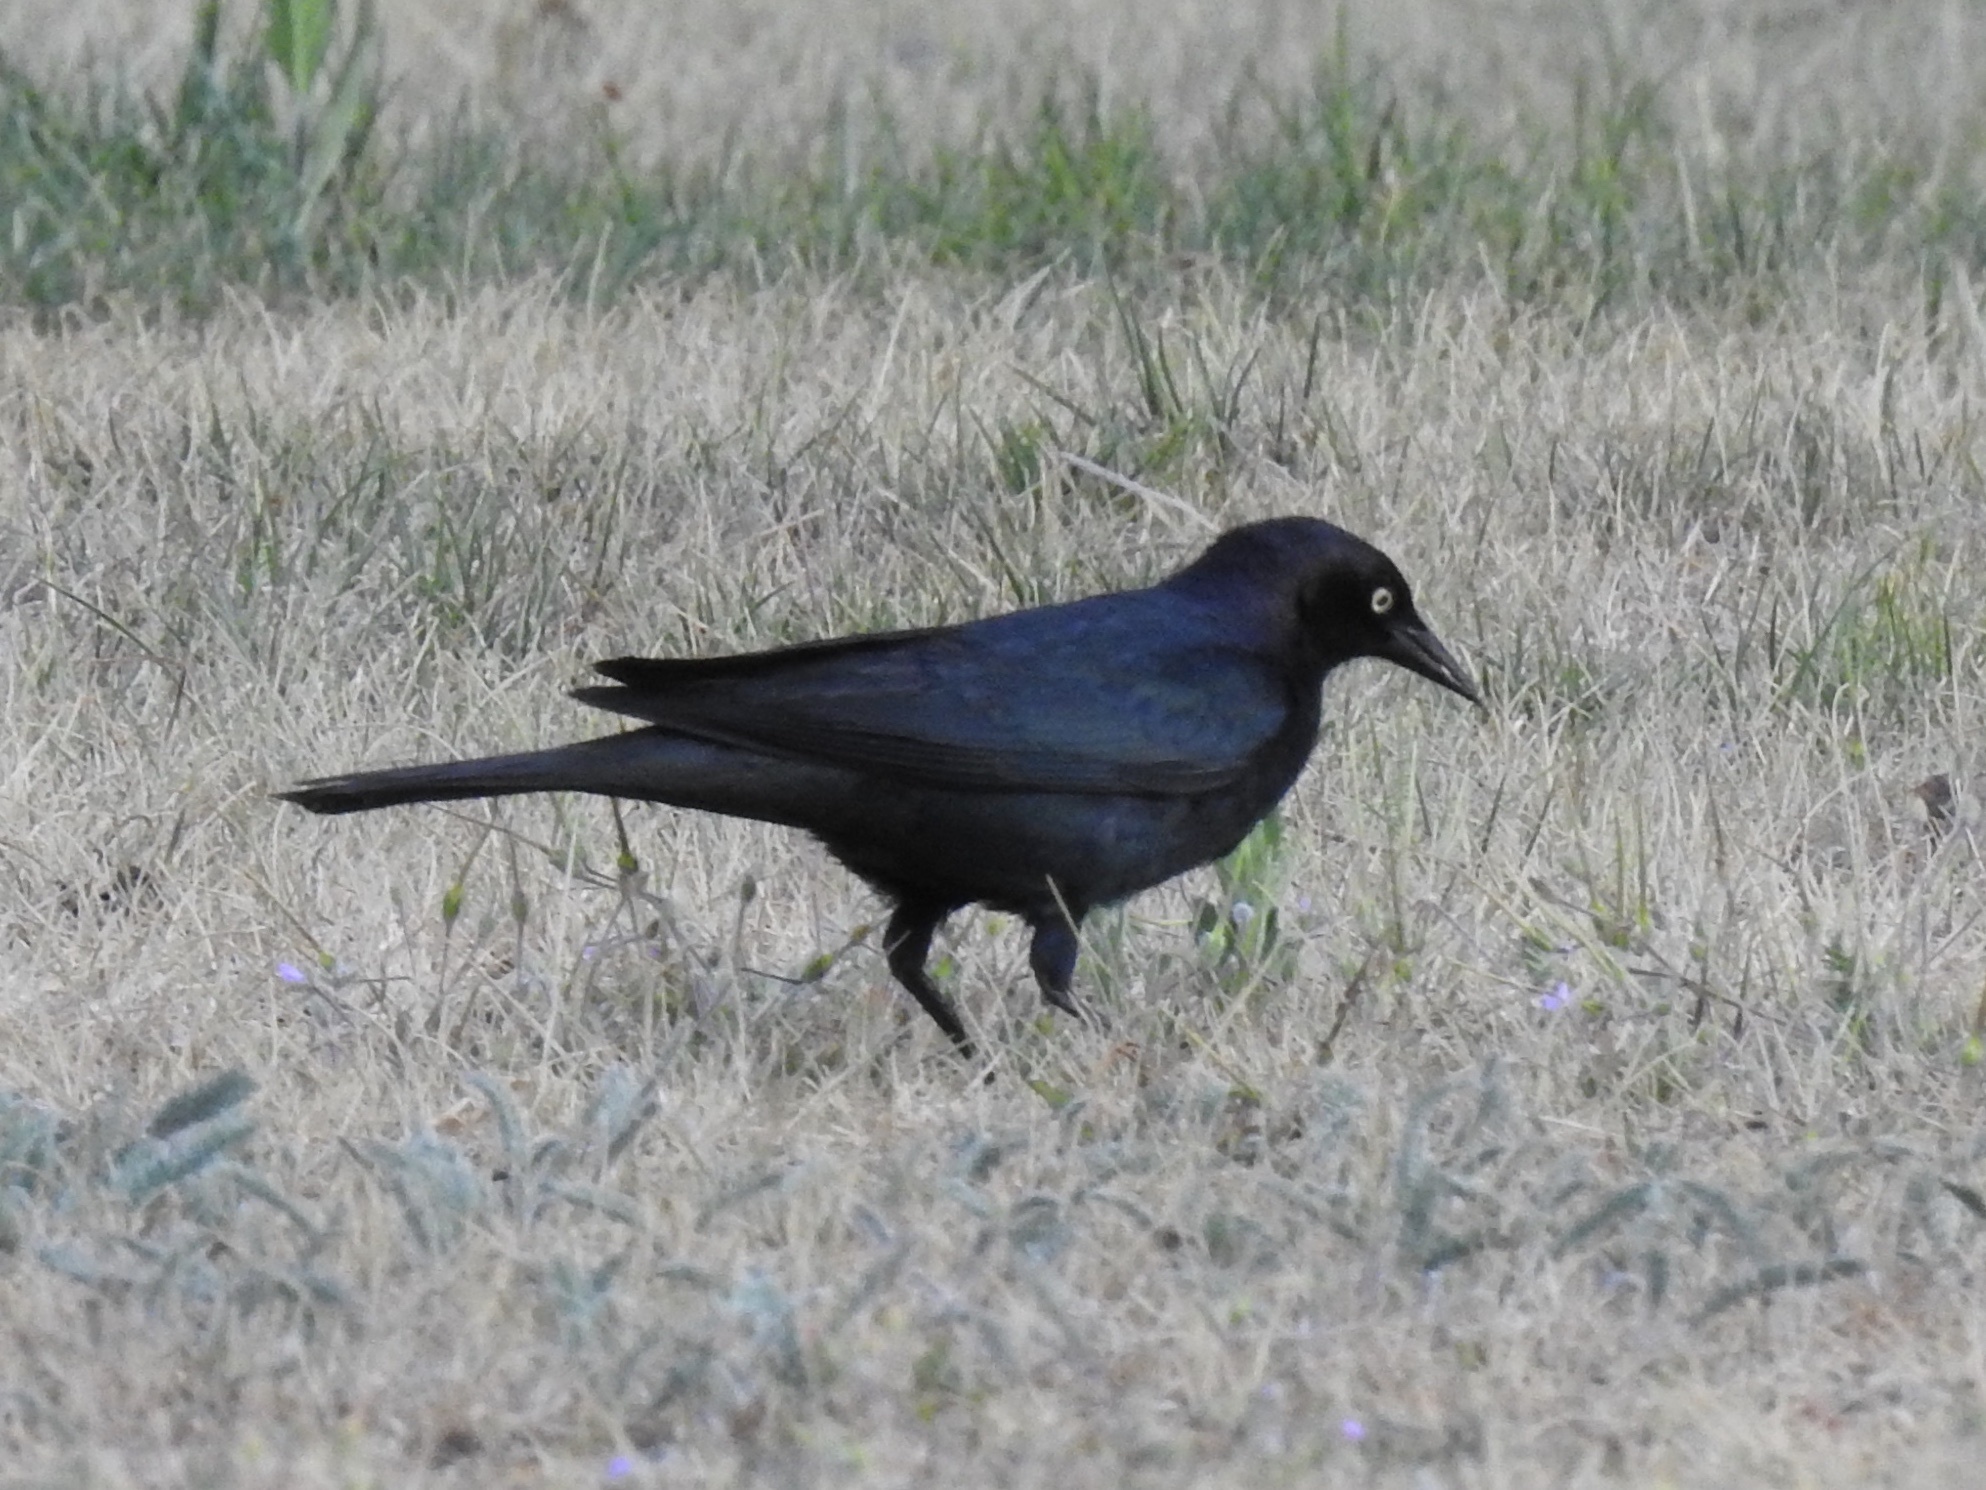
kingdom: Animalia
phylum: Chordata
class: Aves
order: Passeriformes
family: Icteridae
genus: Euphagus
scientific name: Euphagus cyanocephalus
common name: Brewer's blackbird
